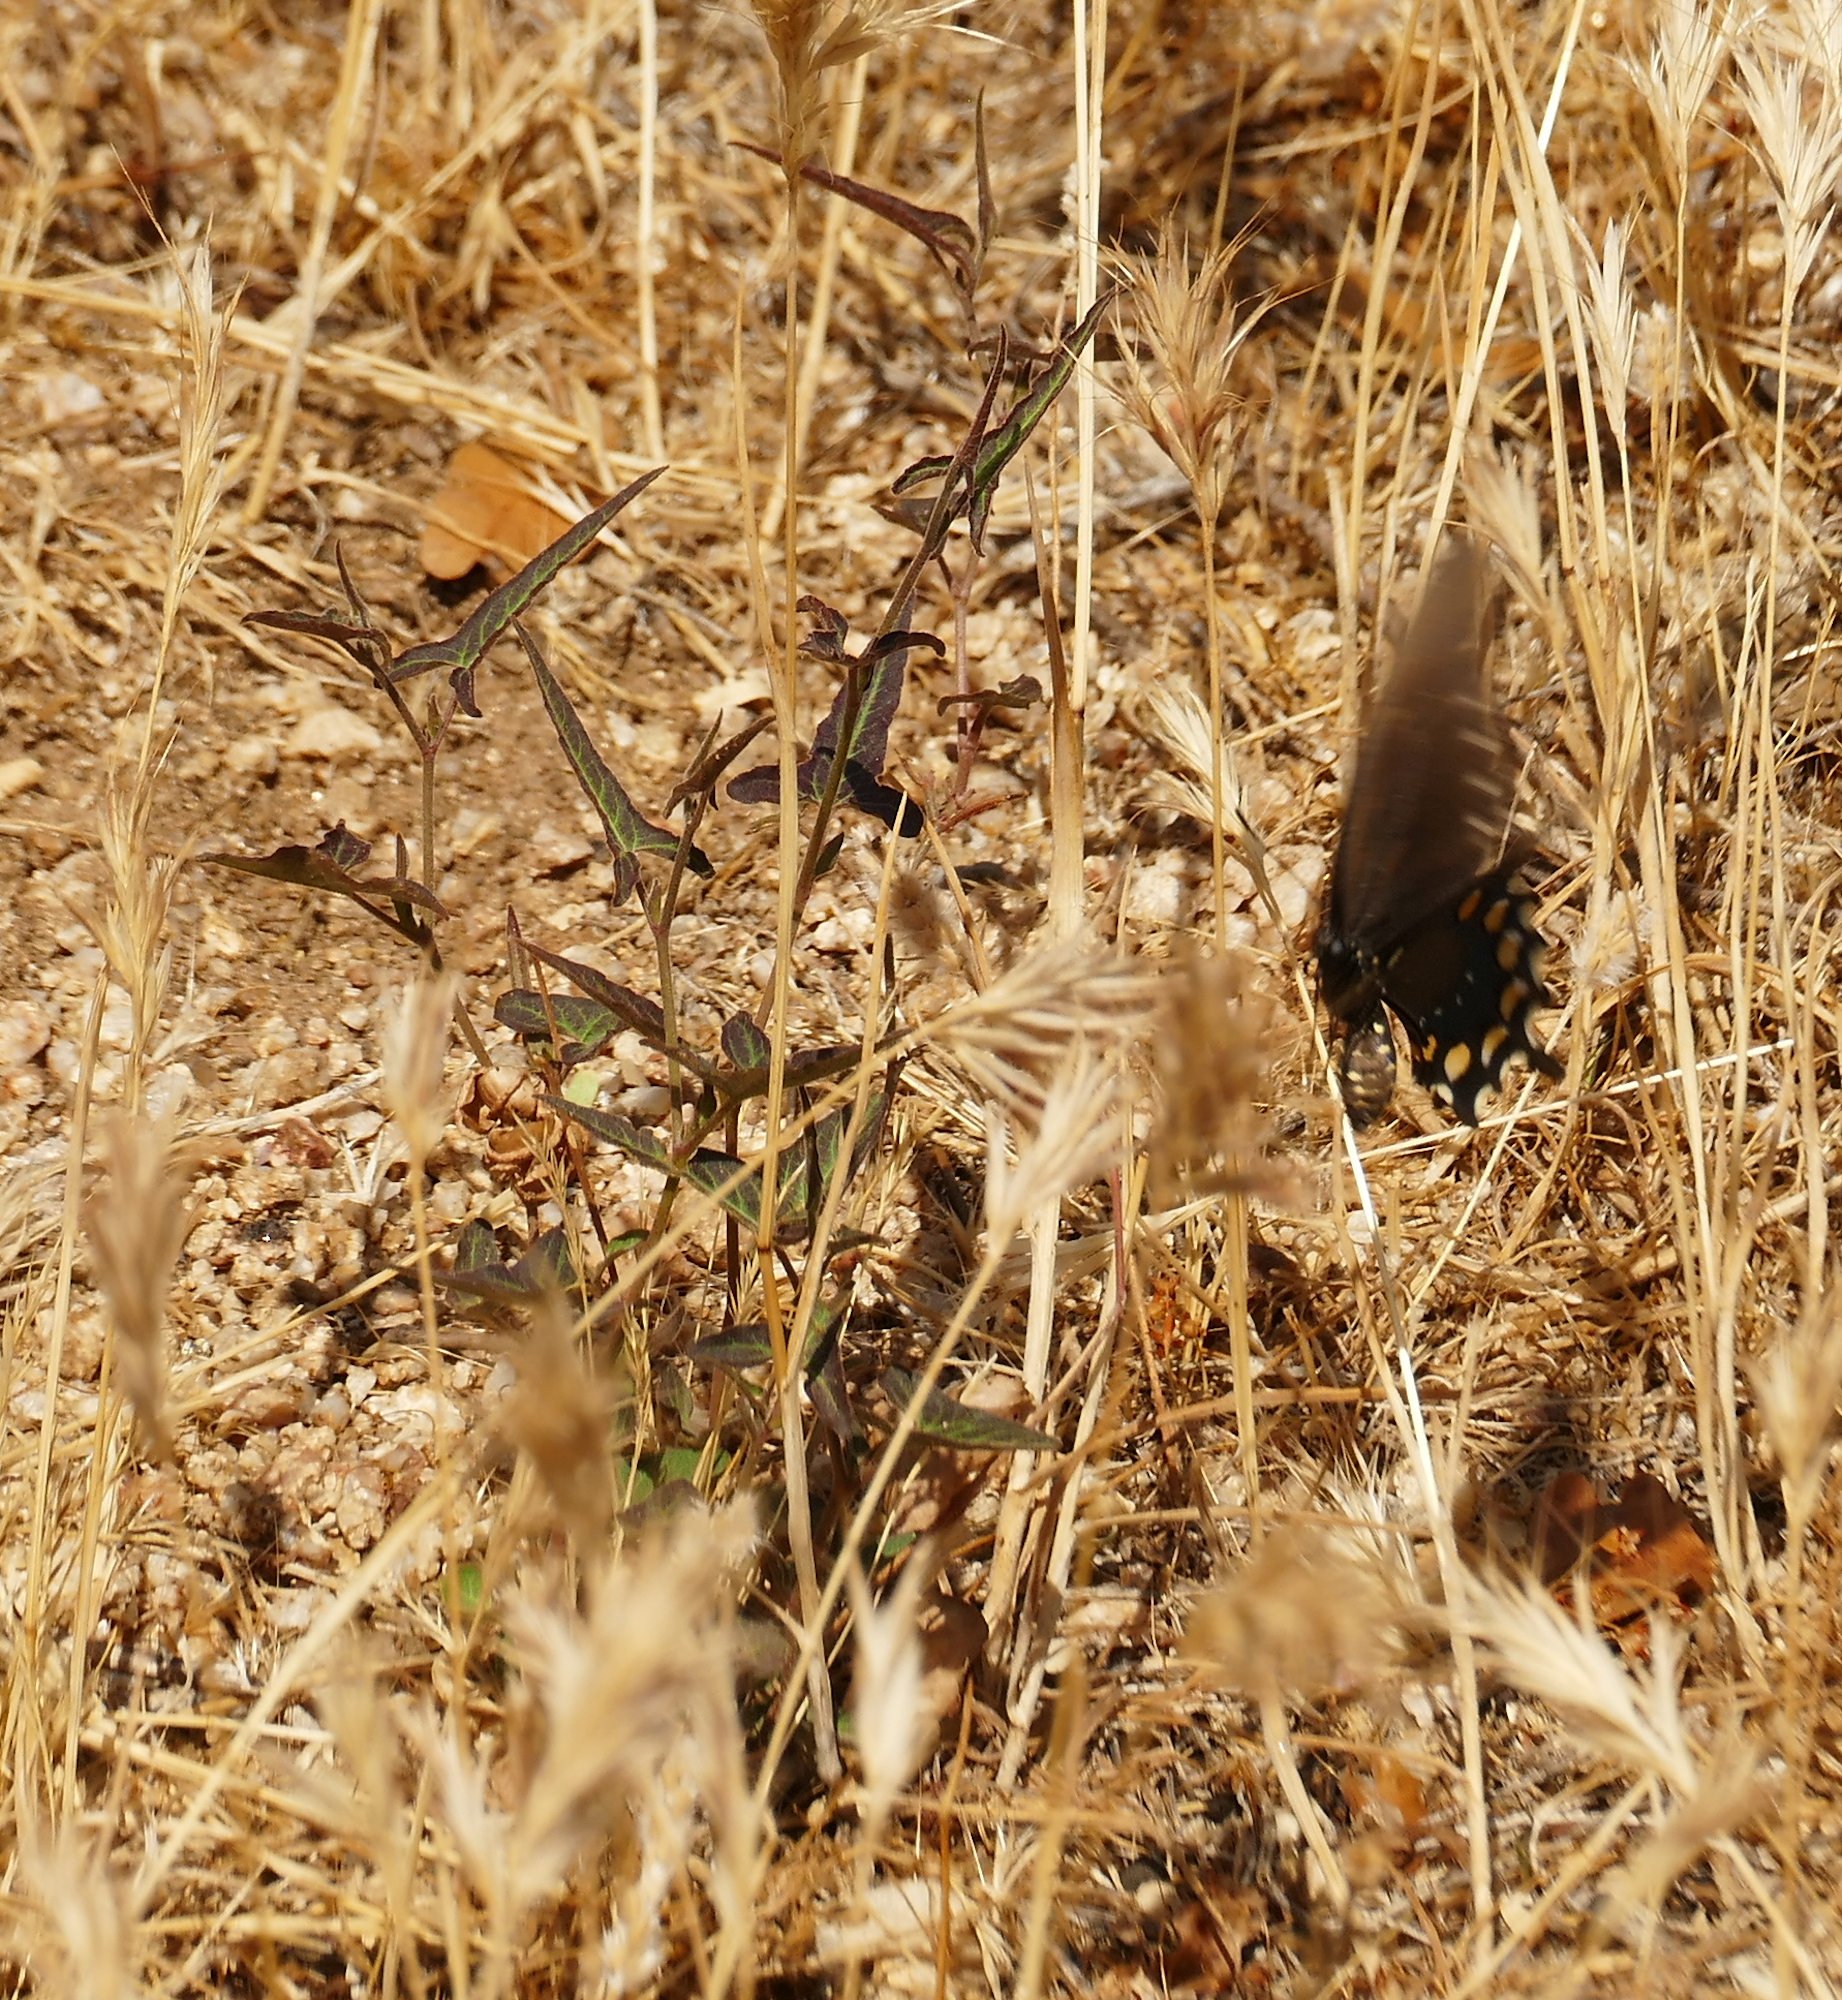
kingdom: Plantae
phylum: Tracheophyta
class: Magnoliopsida
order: Piperales
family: Aristolochiaceae
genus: Aristolochia
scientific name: Aristolochia watsonii
